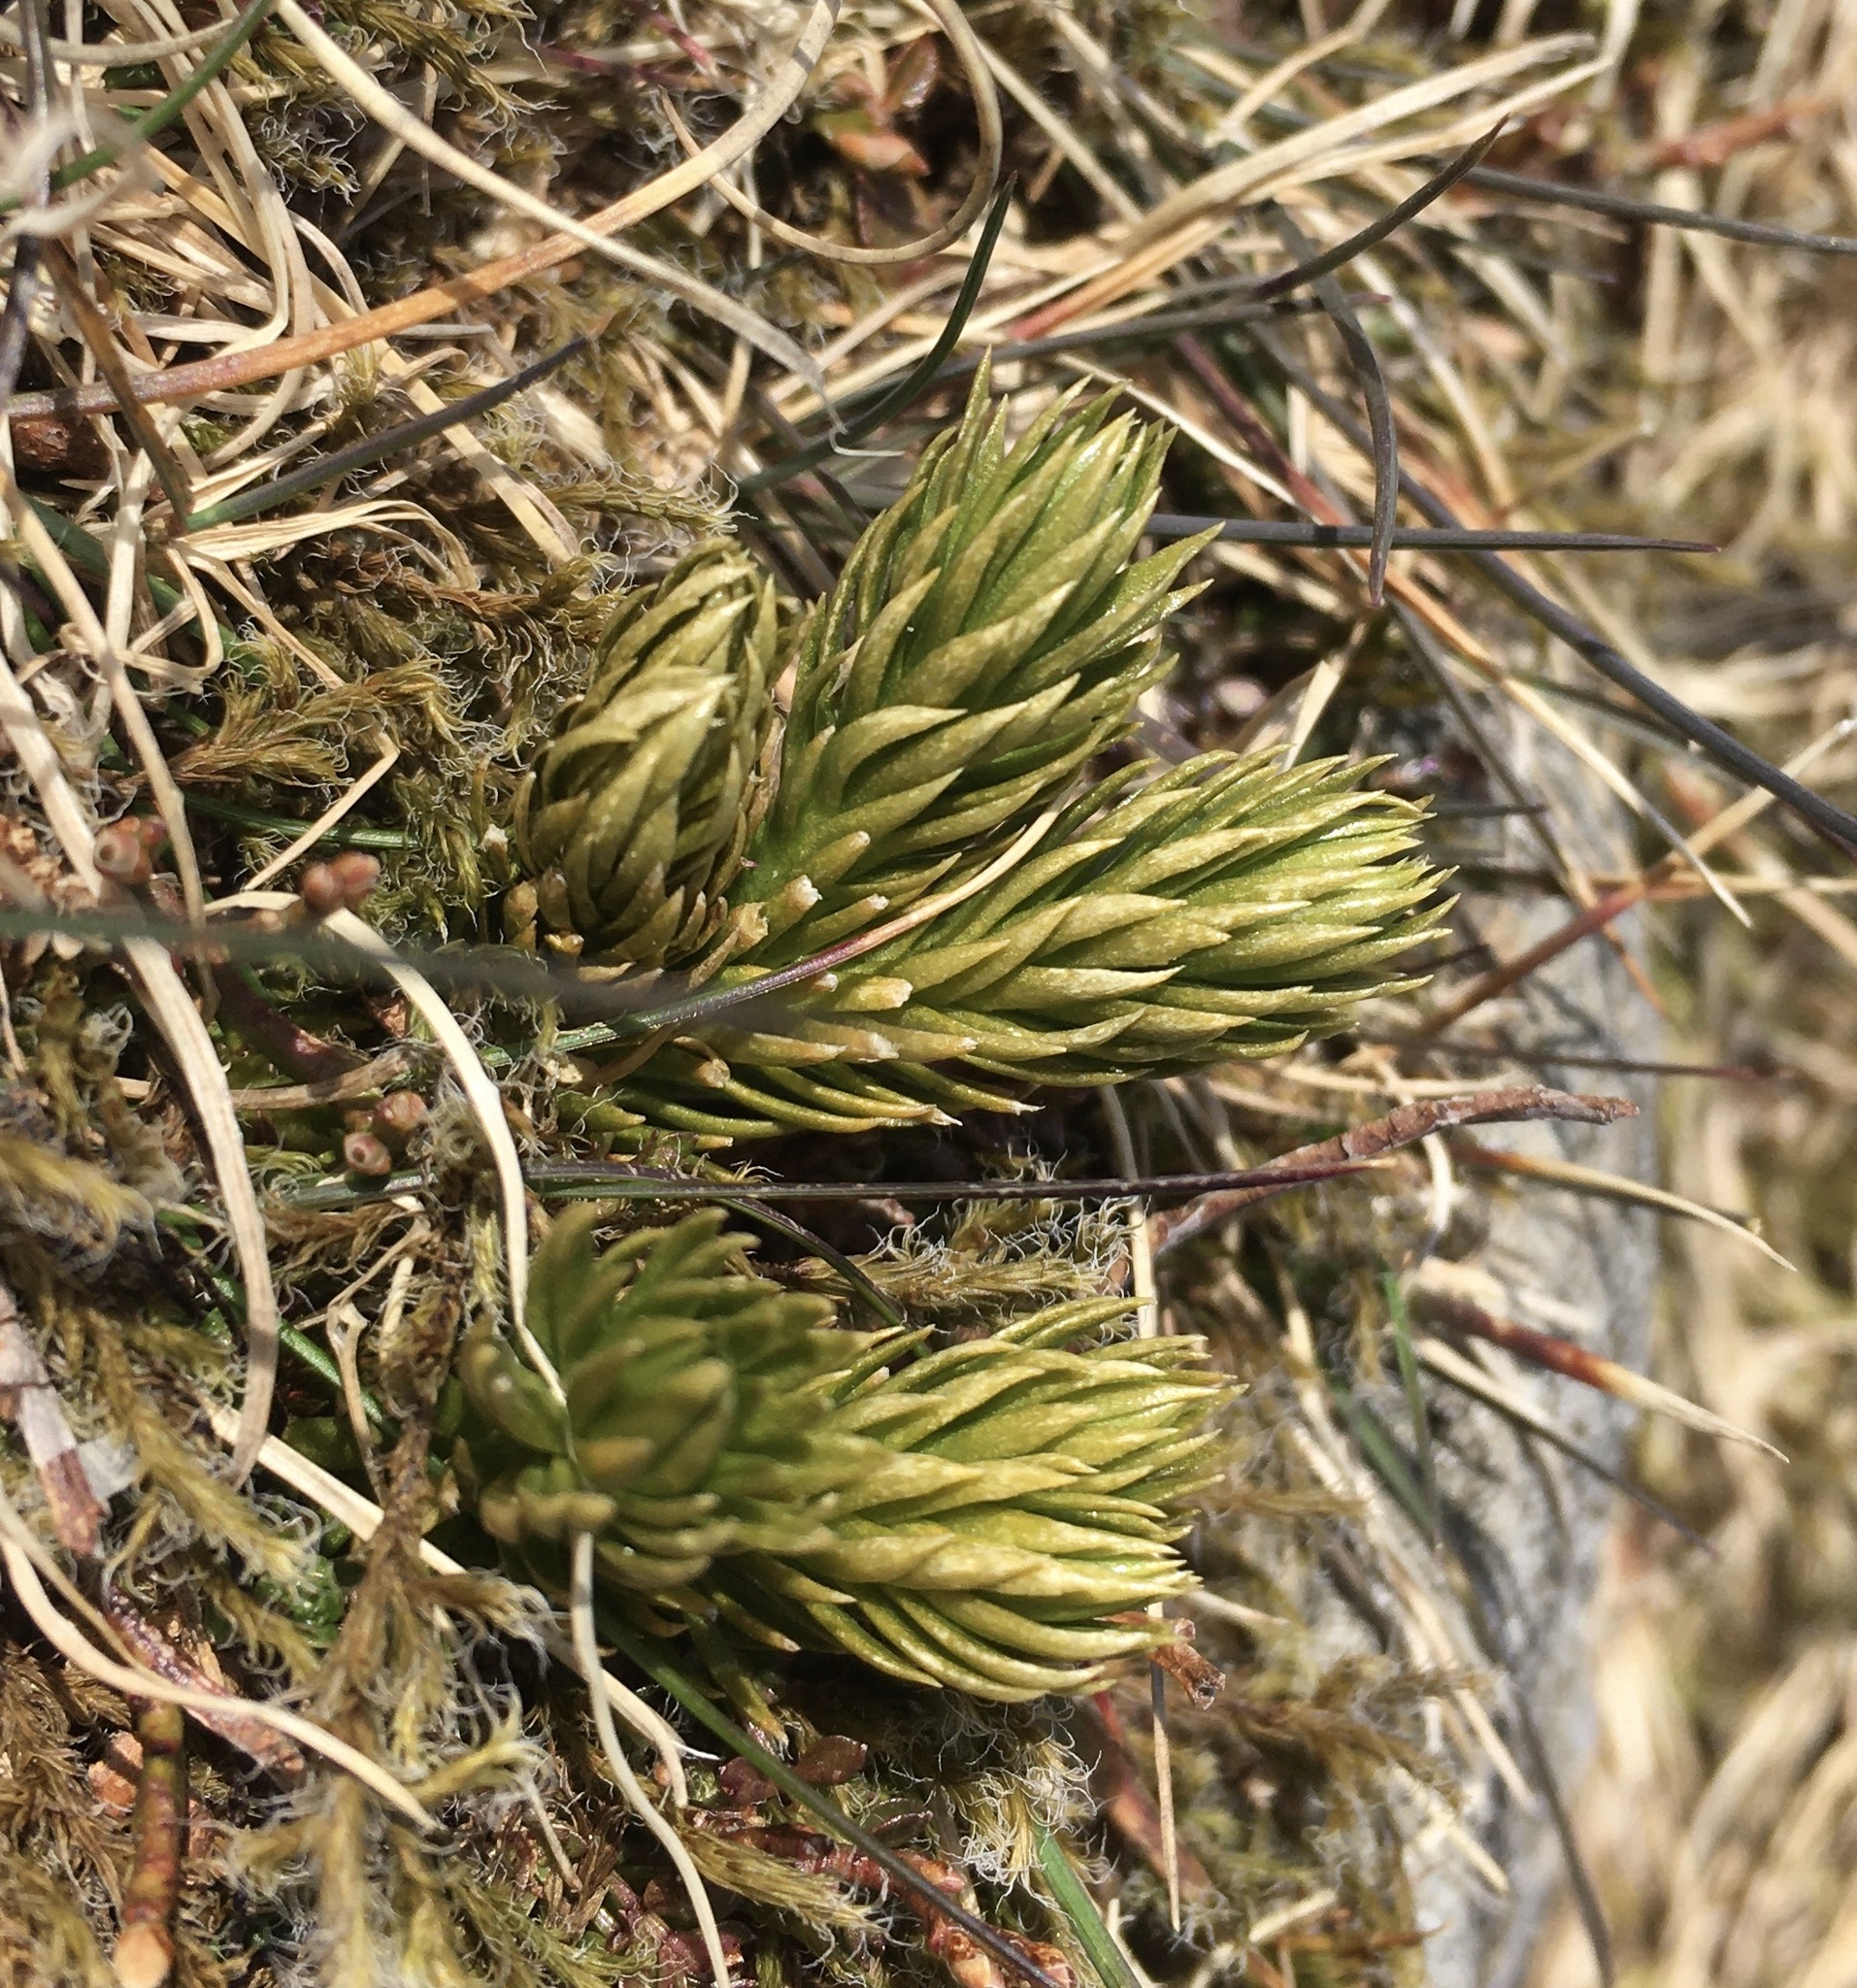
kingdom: Plantae
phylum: Tracheophyta
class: Lycopodiopsida
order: Lycopodiales
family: Lycopodiaceae
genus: Huperzia
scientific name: Huperzia selago
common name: Northern firmoss
